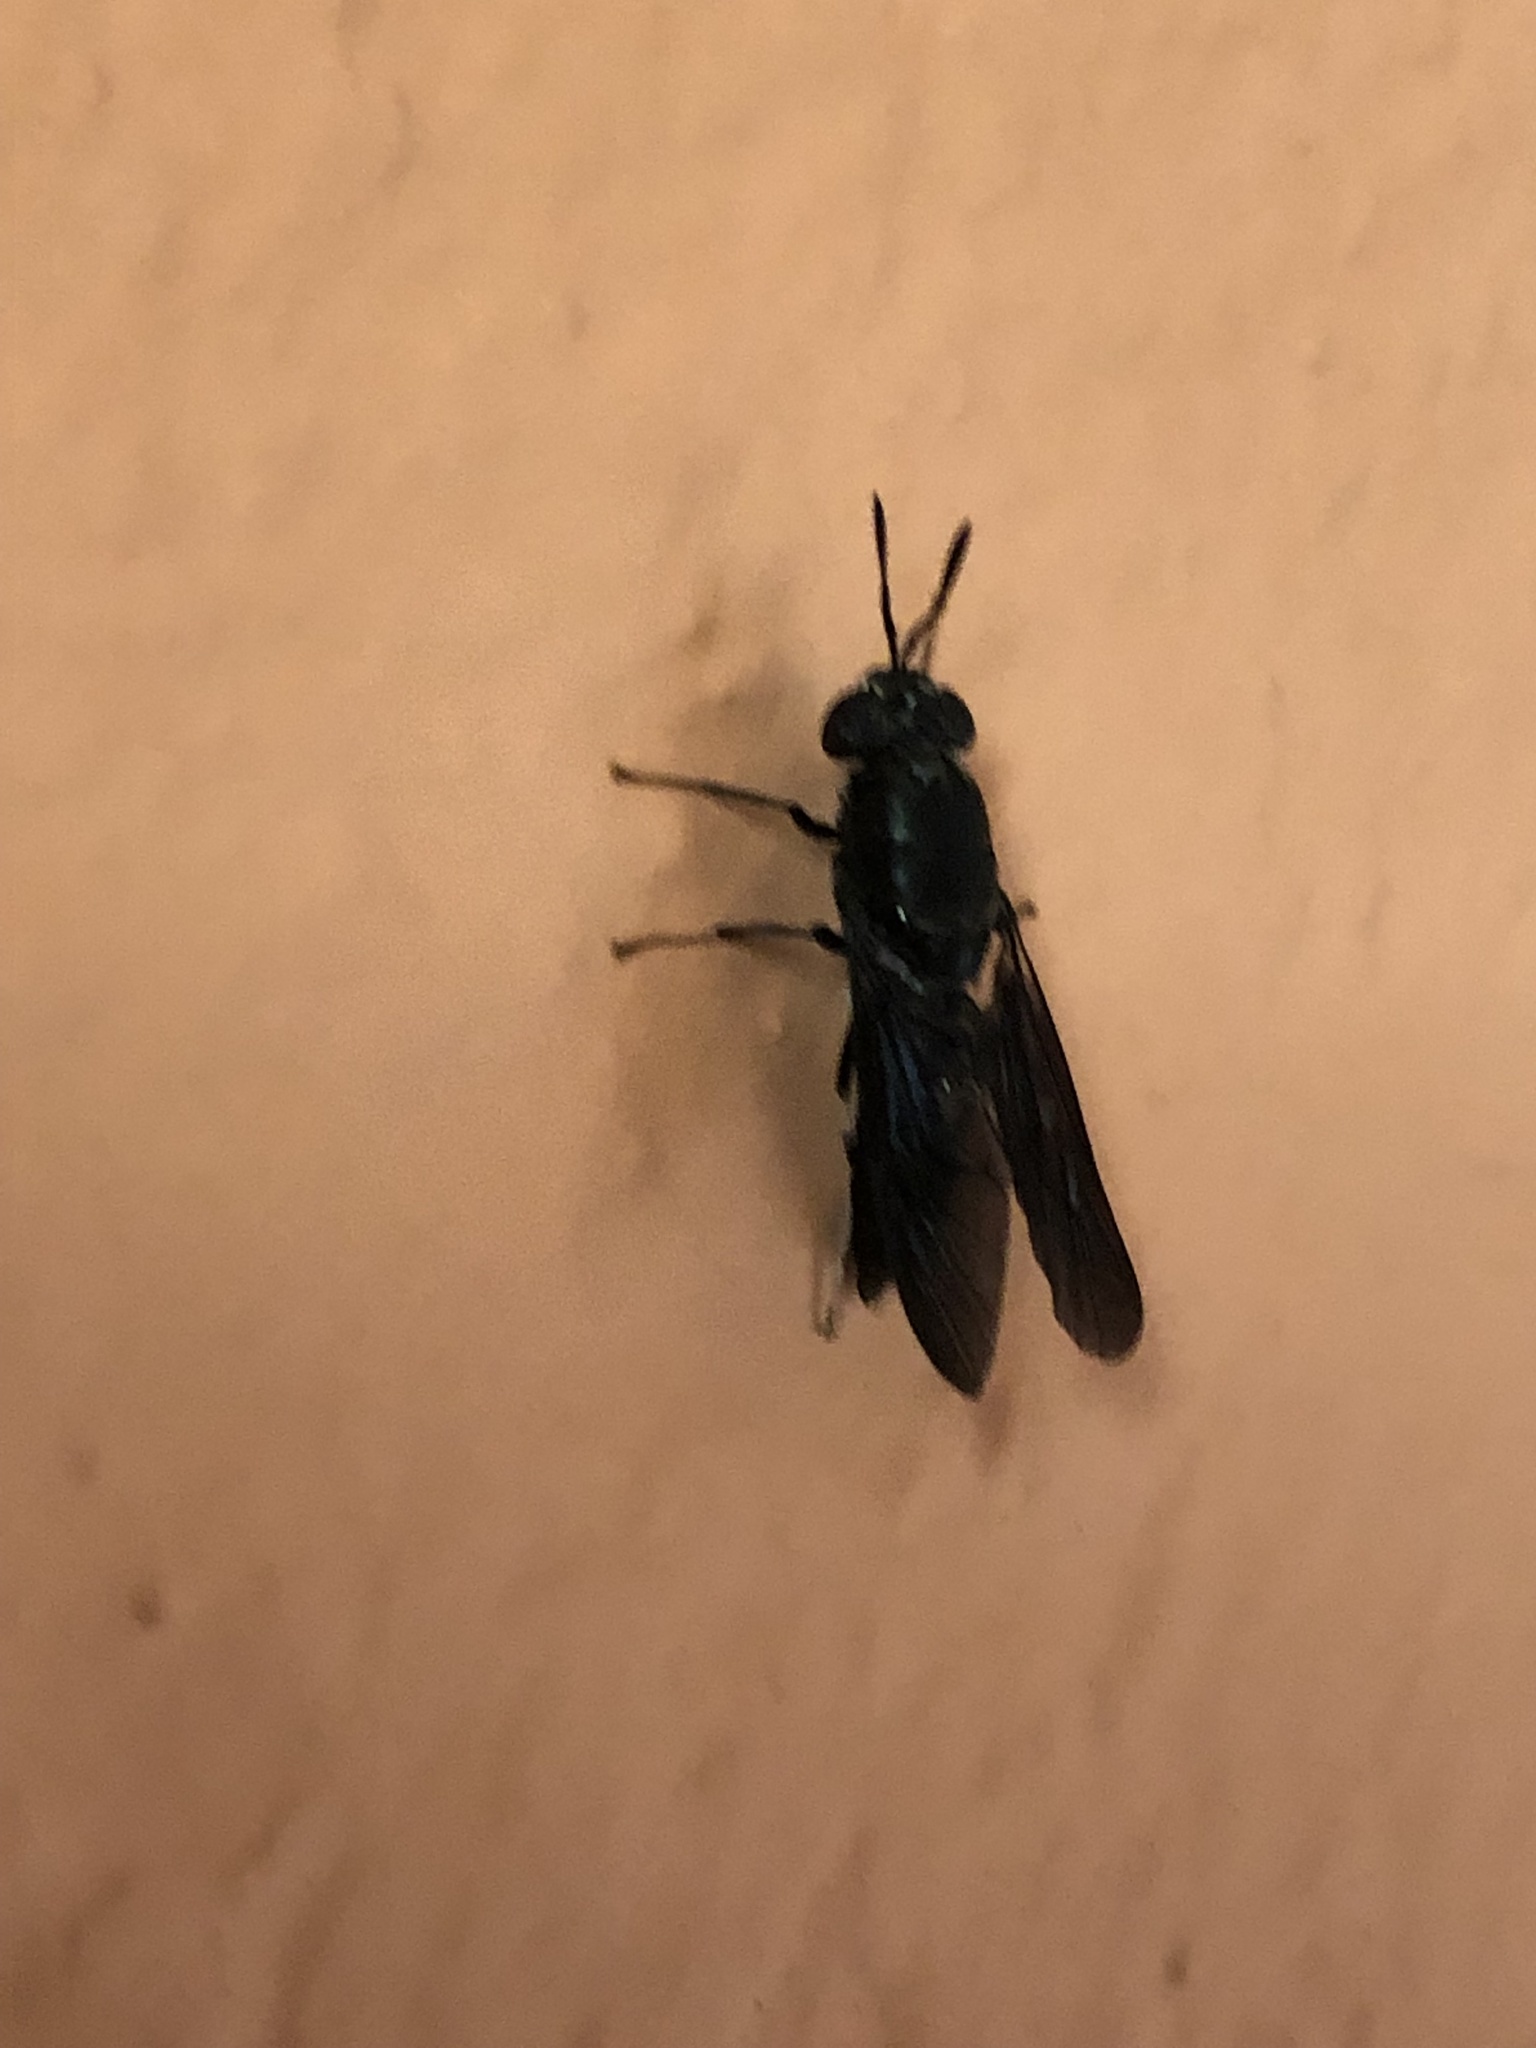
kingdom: Animalia
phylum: Arthropoda
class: Insecta
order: Diptera
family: Stratiomyidae
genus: Hermetia
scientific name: Hermetia illucens
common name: Black soldier fly
